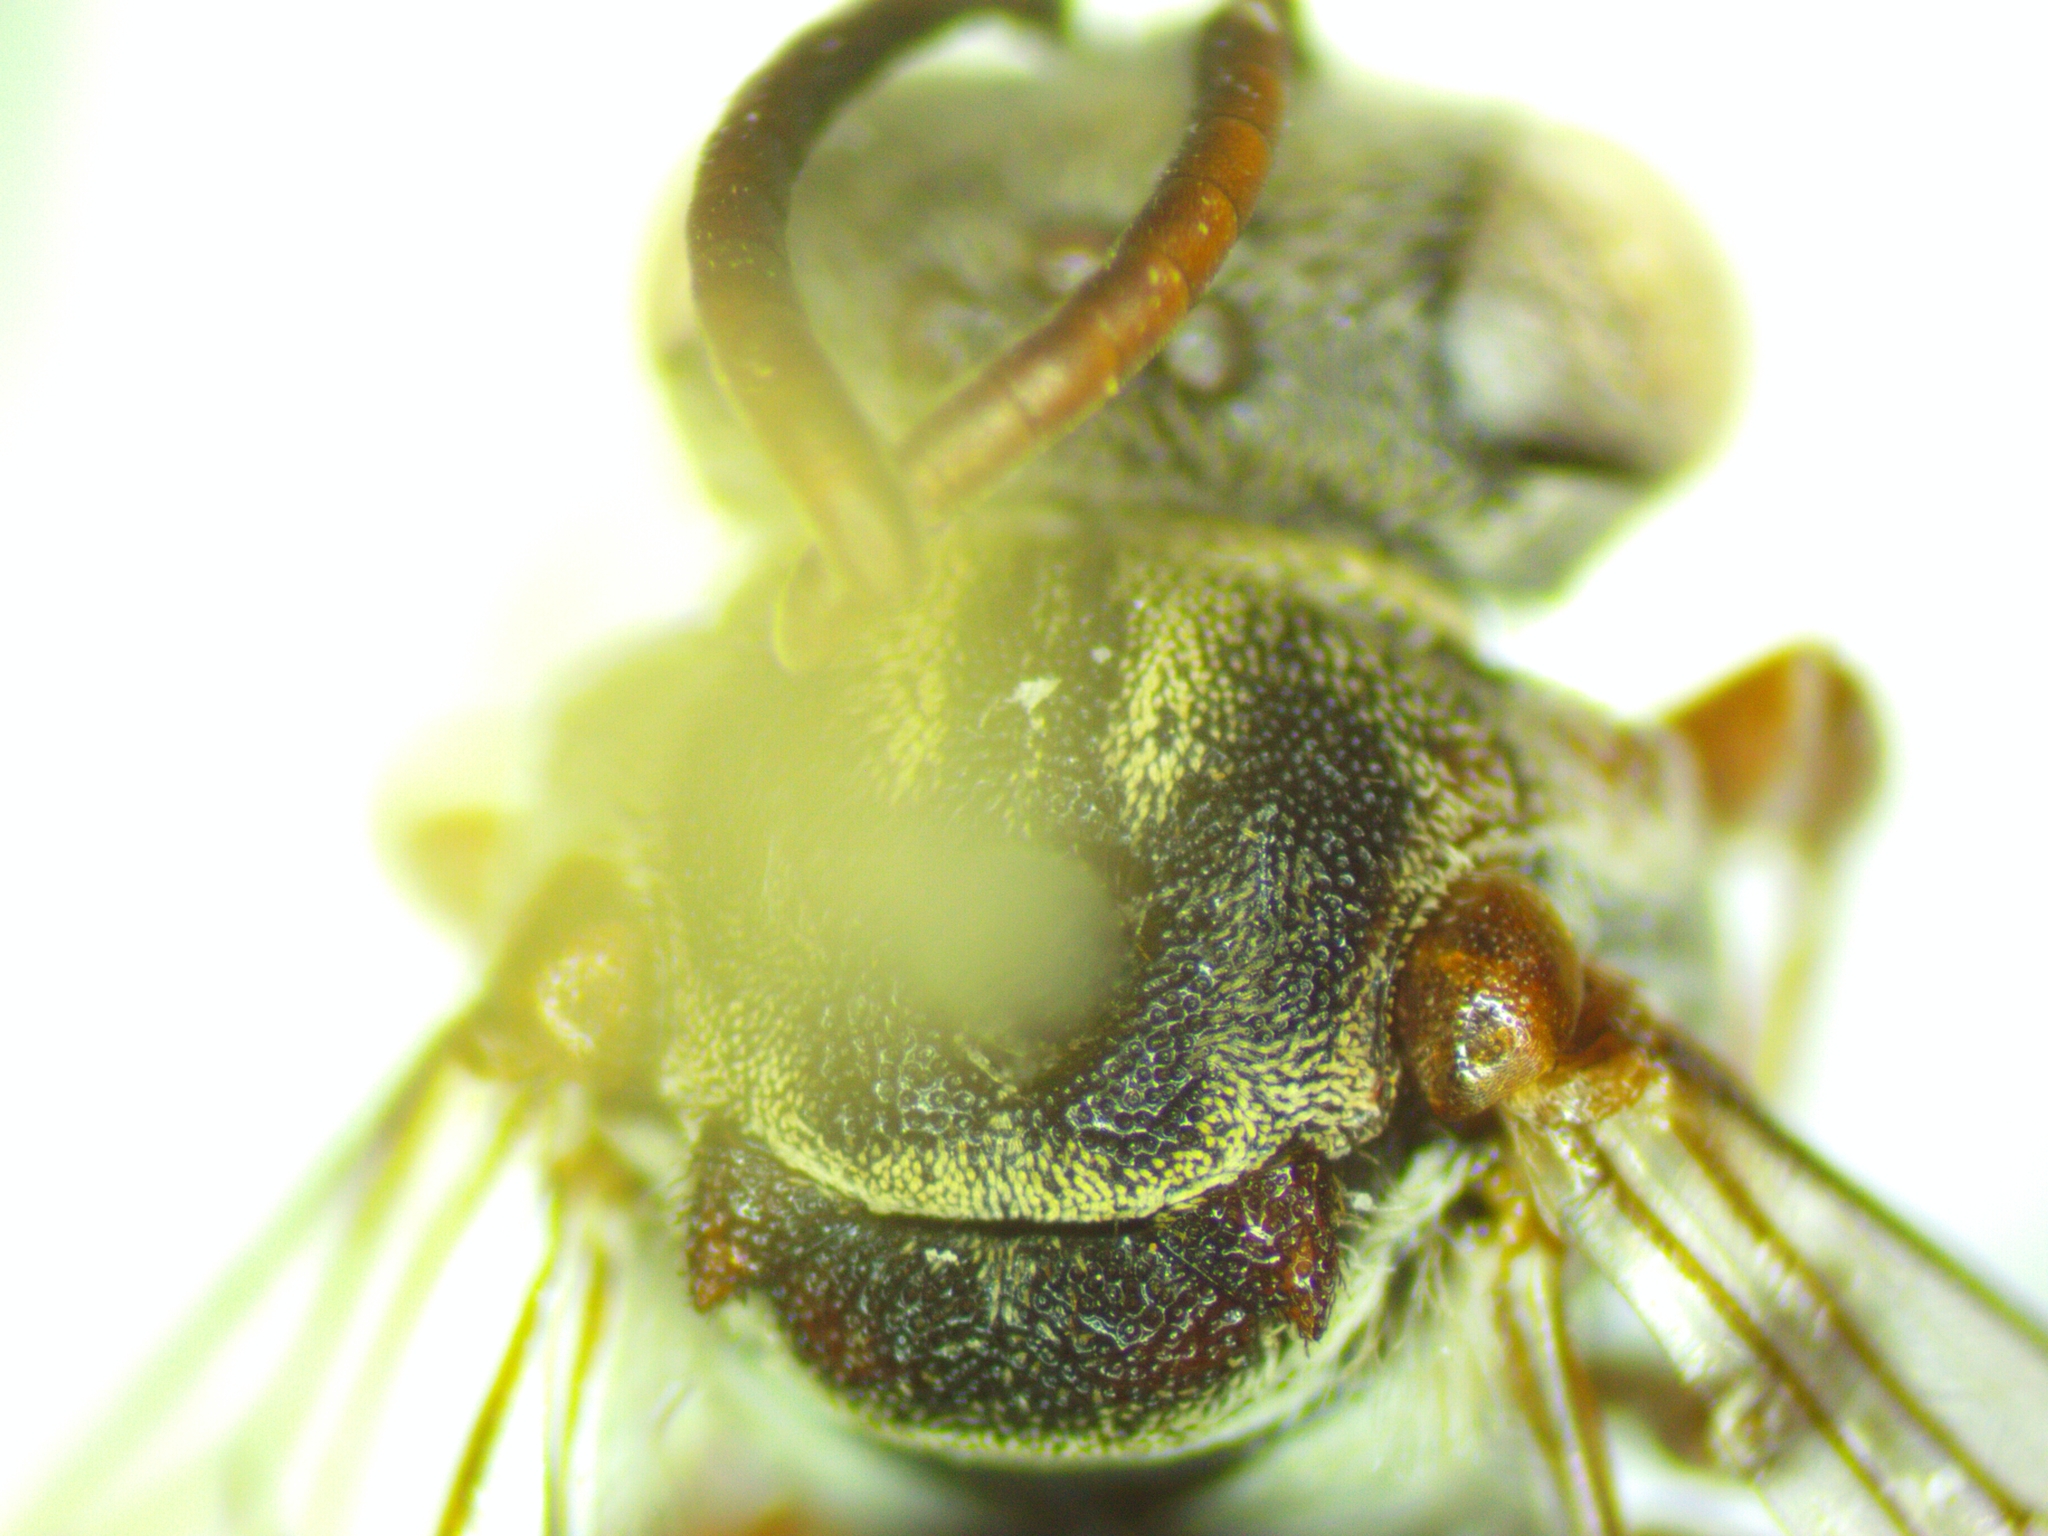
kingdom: Animalia
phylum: Arthropoda
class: Insecta
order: Hymenoptera
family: Apidae
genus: Epeolus
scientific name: Epeolus australis
